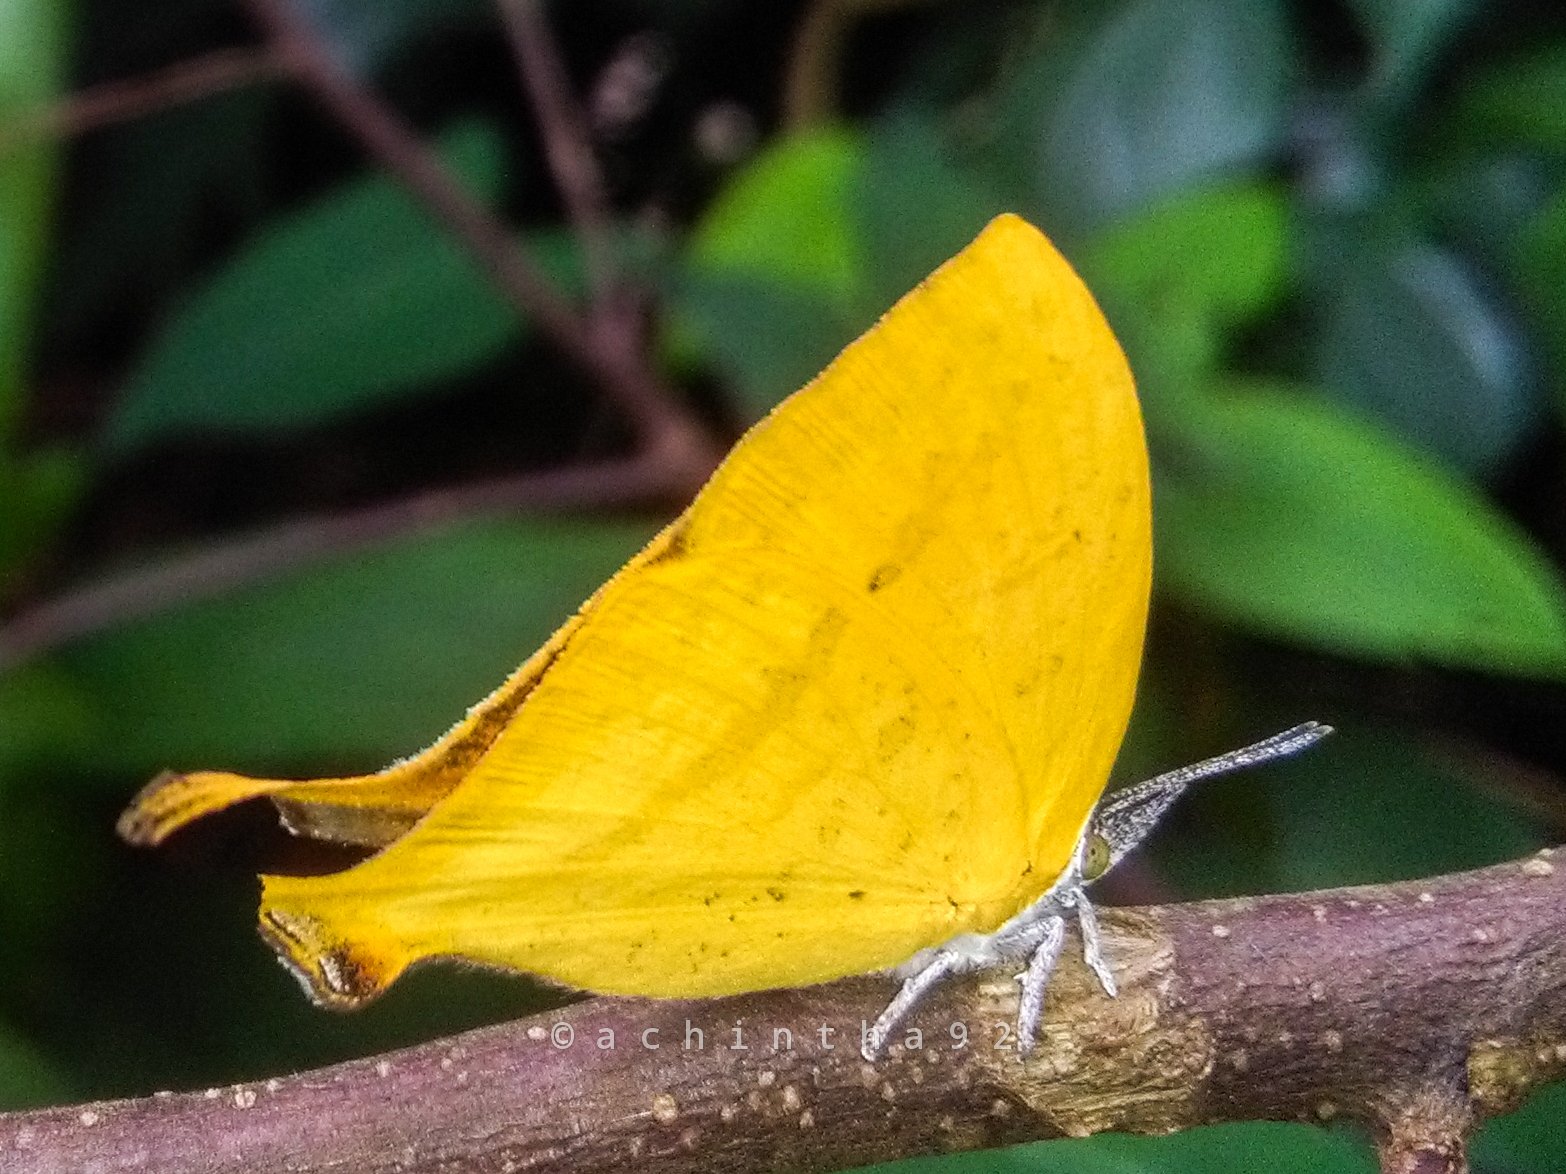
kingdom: Animalia
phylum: Arthropoda
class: Insecta
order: Lepidoptera
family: Lycaenidae
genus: Loxura
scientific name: Loxura atymnus
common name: Common yamfly
